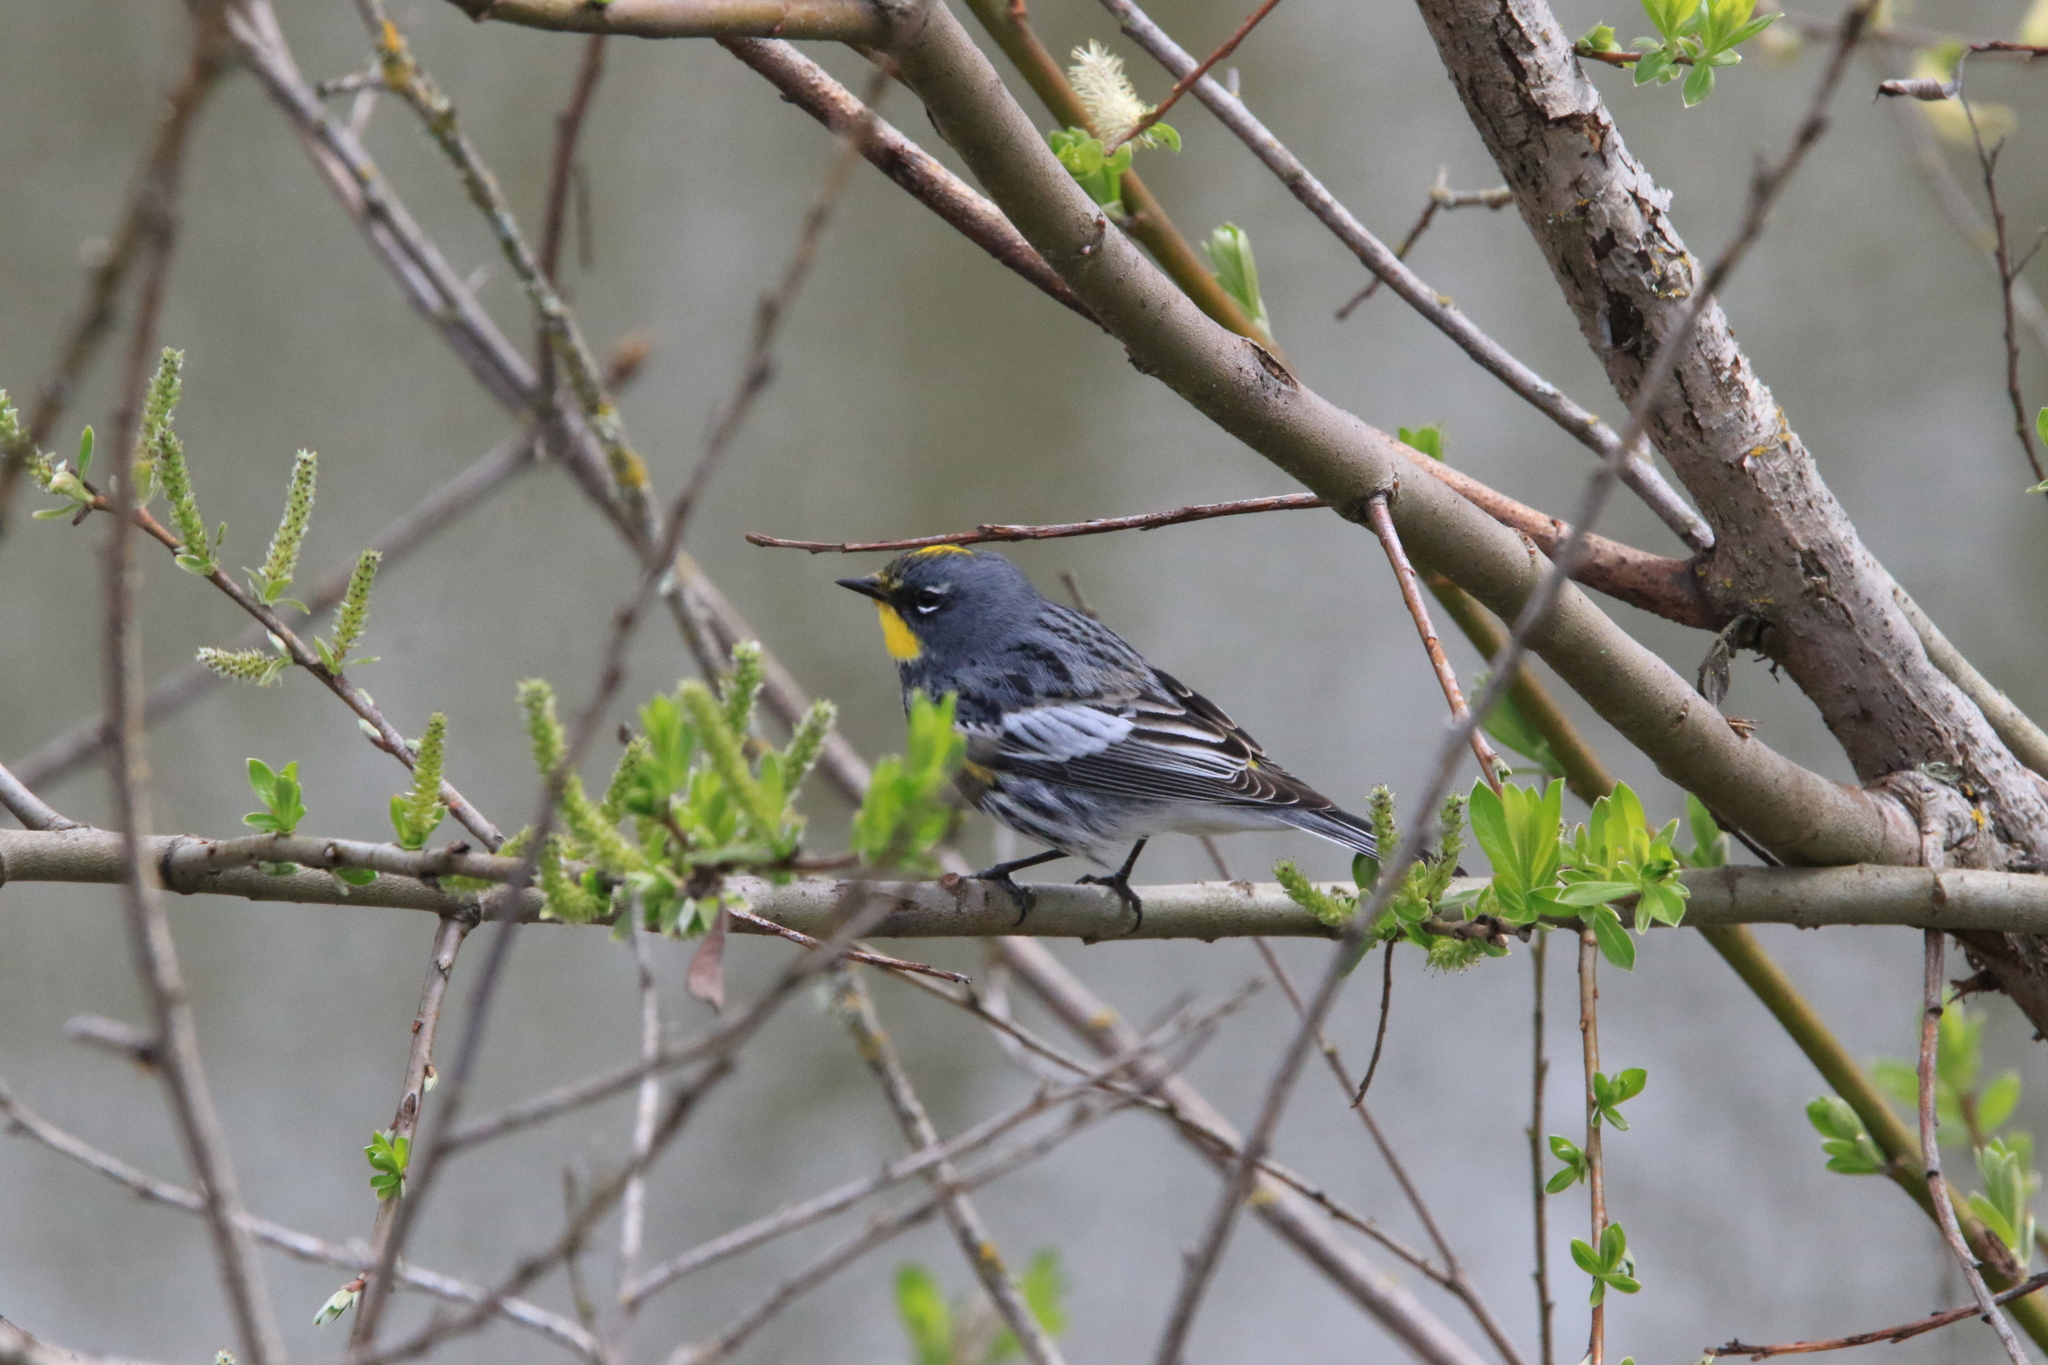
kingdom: Animalia
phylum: Chordata
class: Aves
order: Passeriformes
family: Parulidae
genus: Setophaga
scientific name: Setophaga coronata
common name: Myrtle warbler
